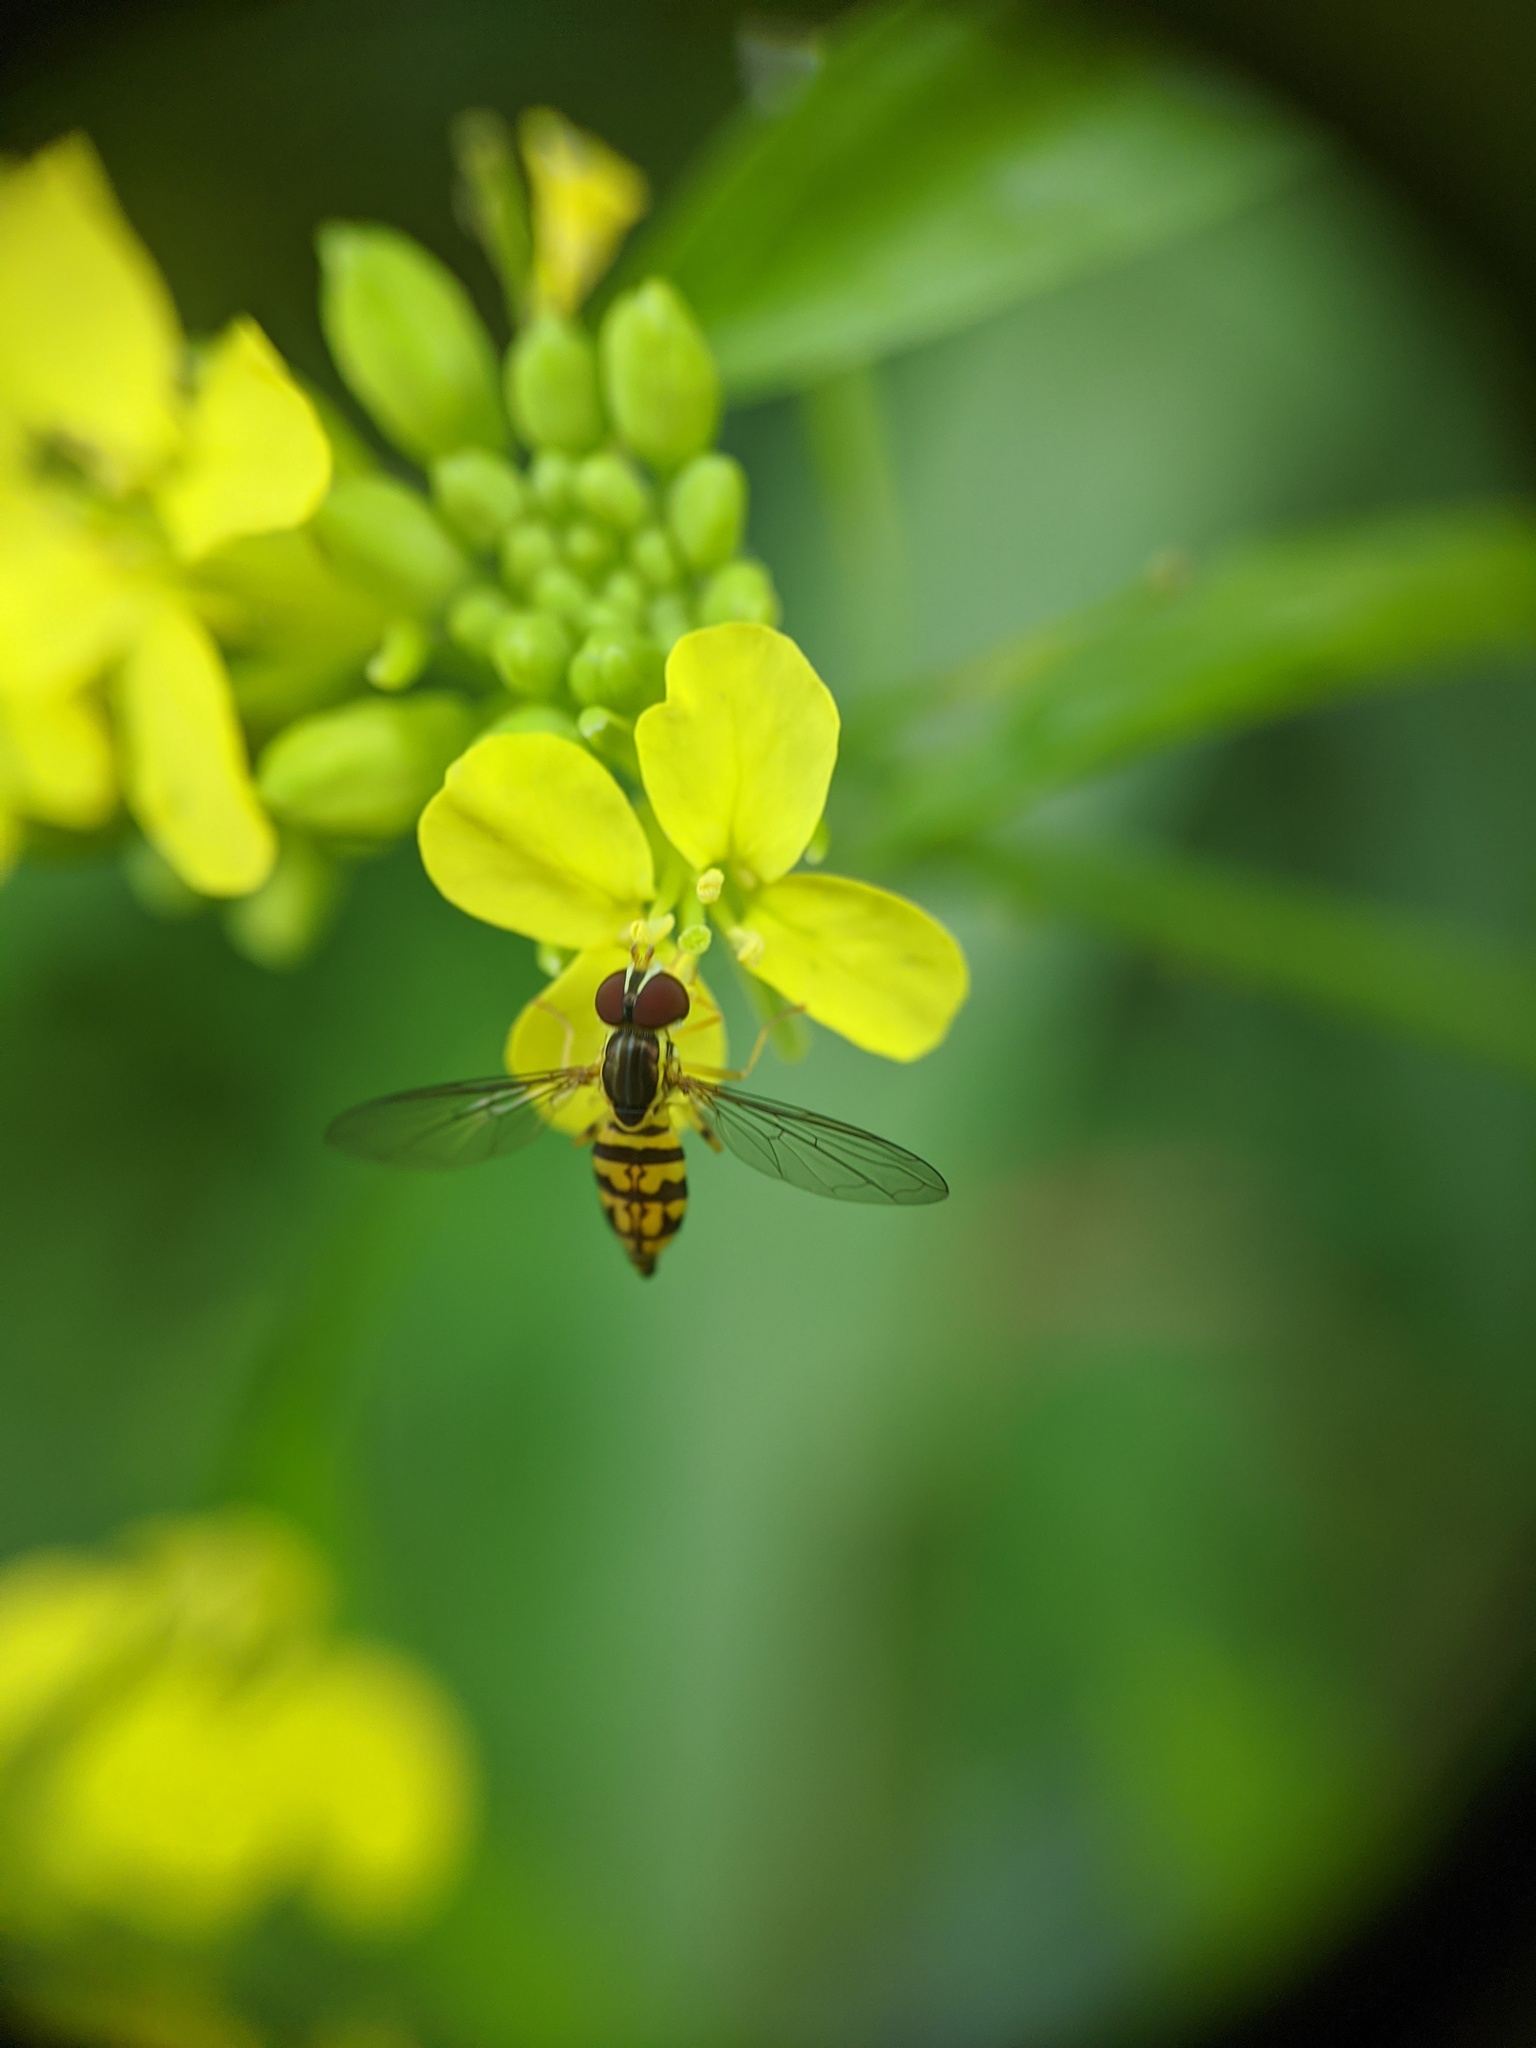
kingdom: Animalia
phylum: Arthropoda
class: Insecta
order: Diptera
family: Syrphidae
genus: Toxomerus
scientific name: Toxomerus geminatus
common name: Eastern calligrapher
